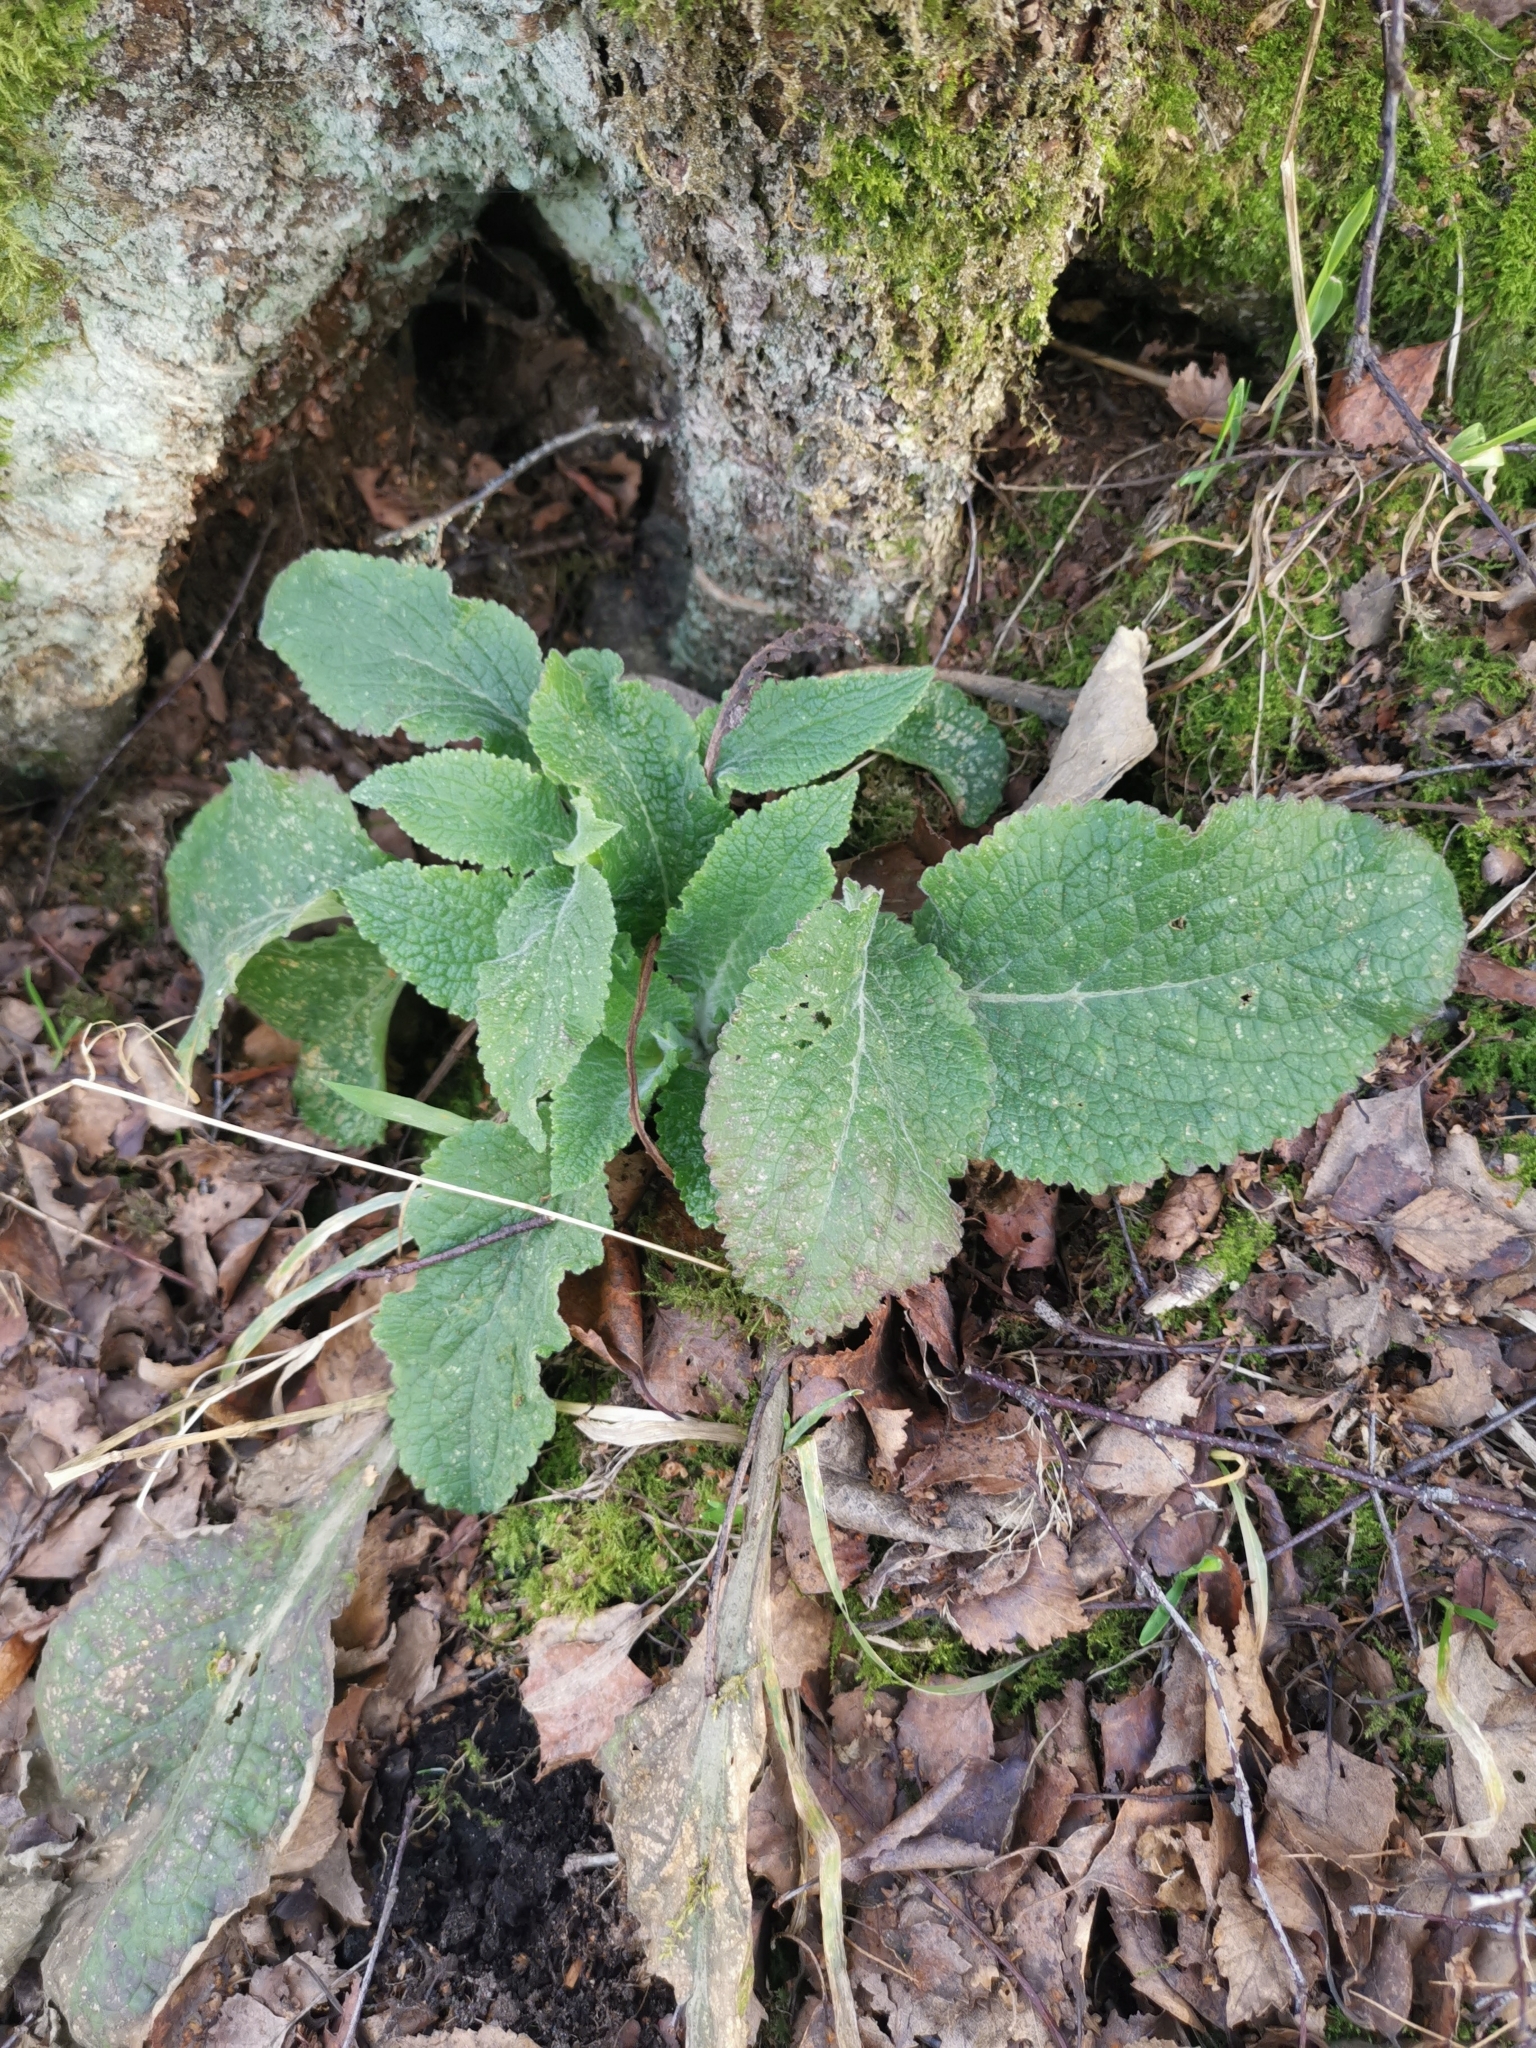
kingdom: Plantae
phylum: Tracheophyta
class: Magnoliopsida
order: Lamiales
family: Plantaginaceae
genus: Digitalis
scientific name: Digitalis purpurea
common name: Foxglove
